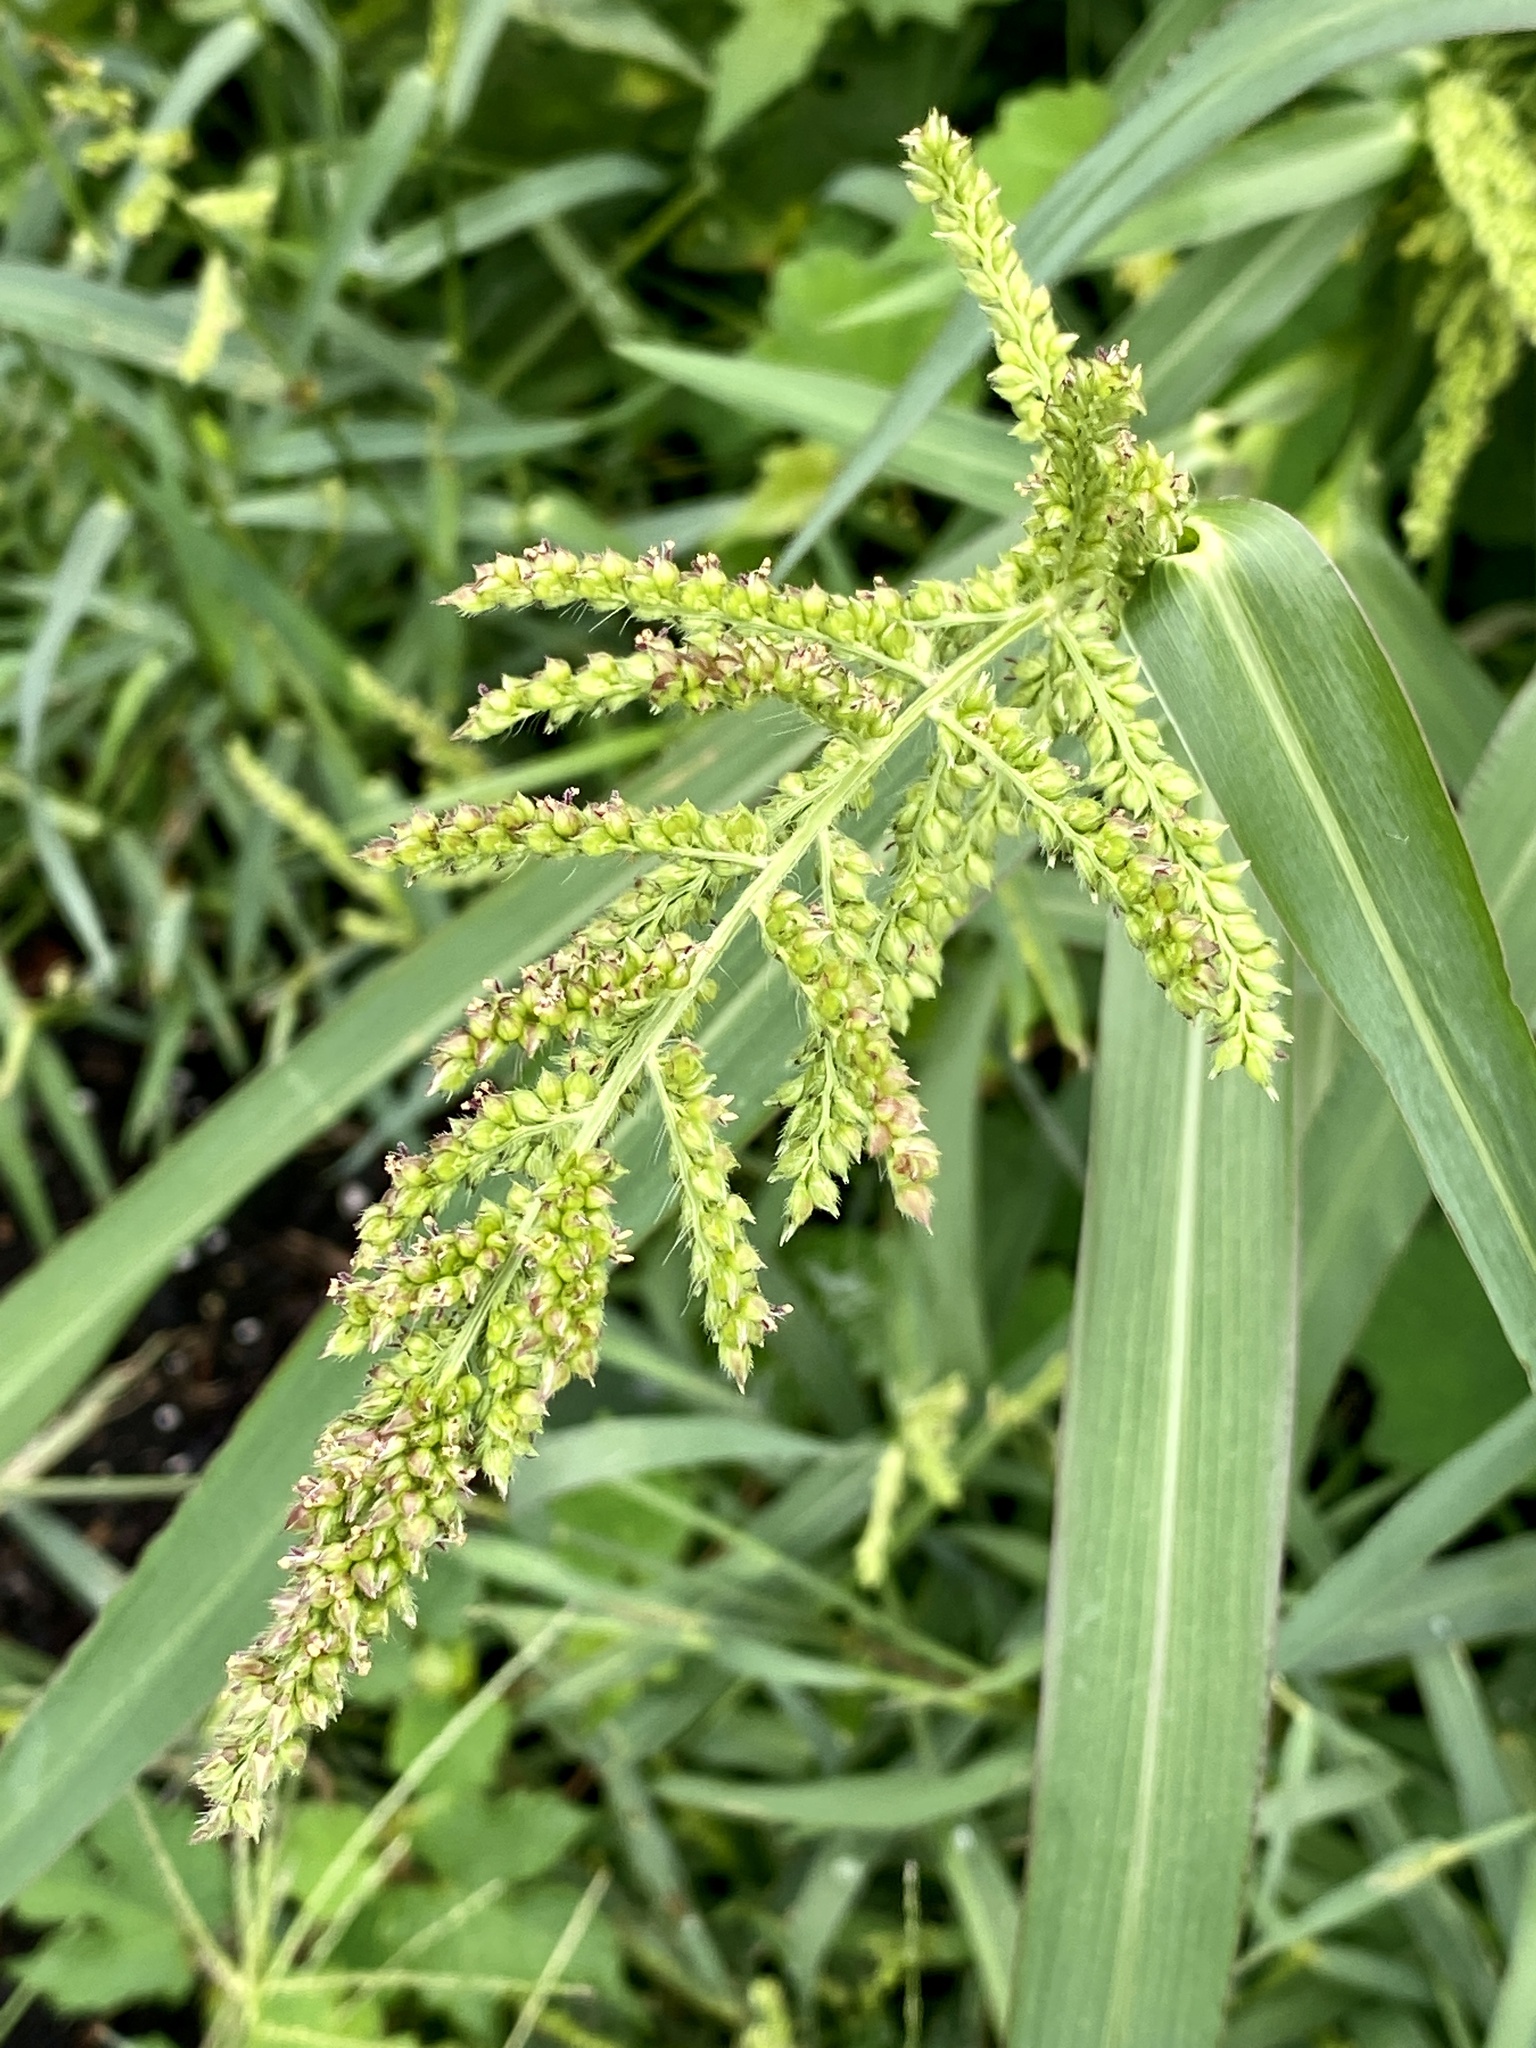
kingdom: Plantae
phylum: Tracheophyta
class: Liliopsida
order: Poales
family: Poaceae
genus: Echinochloa
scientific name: Echinochloa crus-galli
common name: Cockspur
